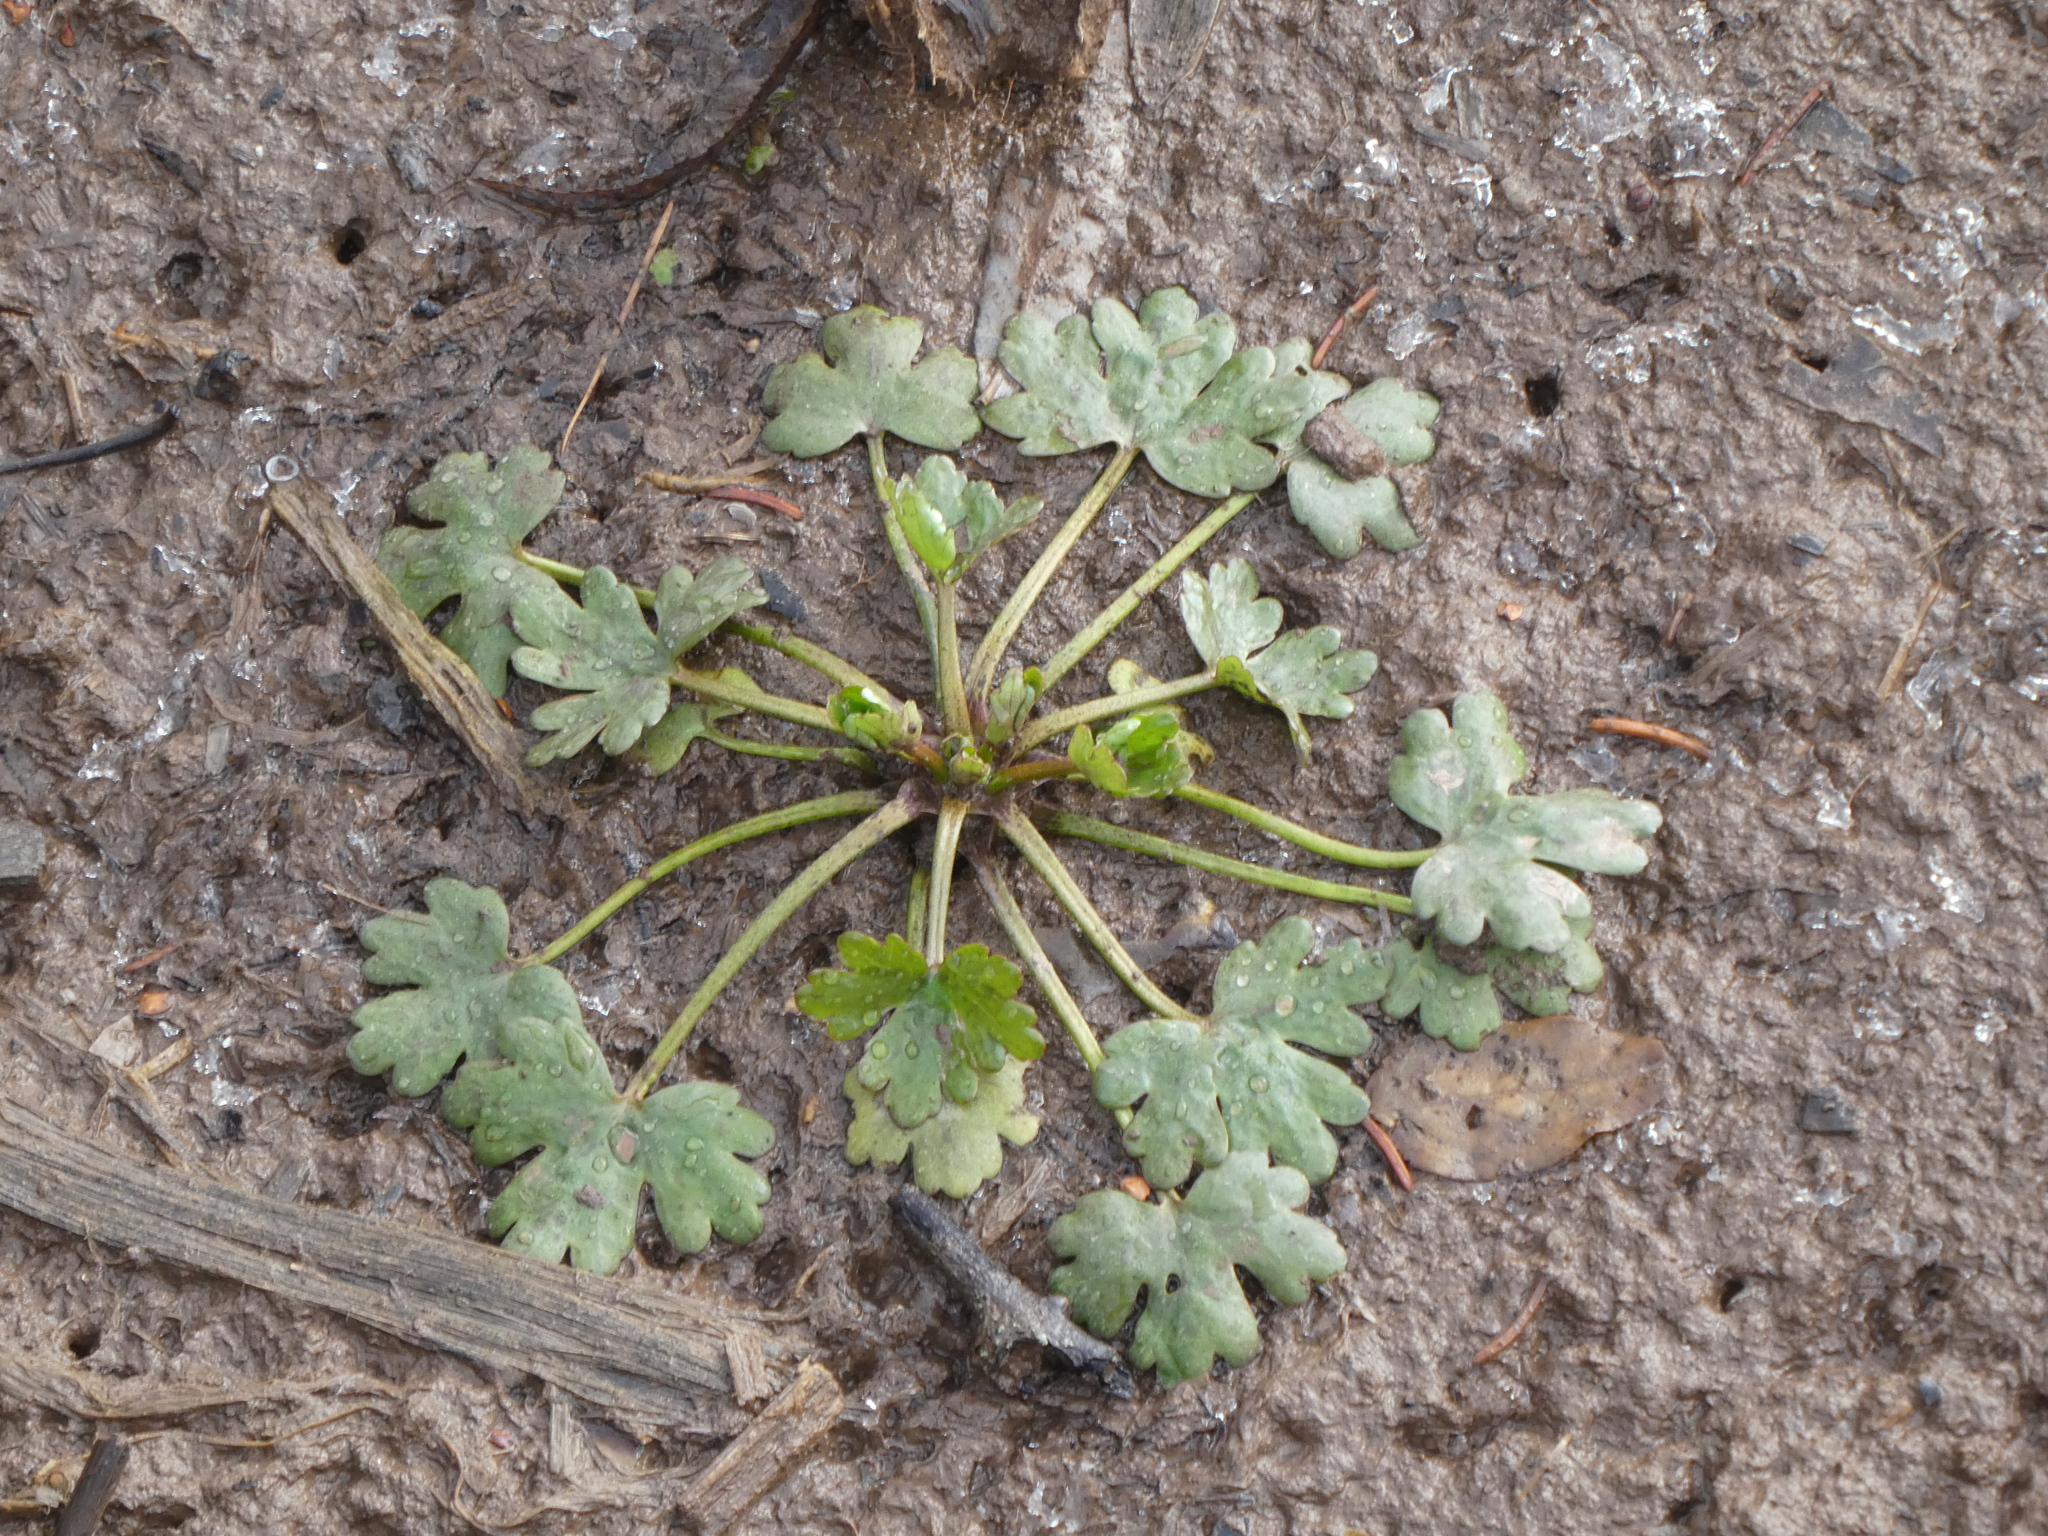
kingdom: Plantae
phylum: Tracheophyta
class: Magnoliopsida
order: Ranunculales
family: Ranunculaceae
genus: Ranunculus
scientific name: Ranunculus sceleratus
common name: Celery-leaved buttercup
